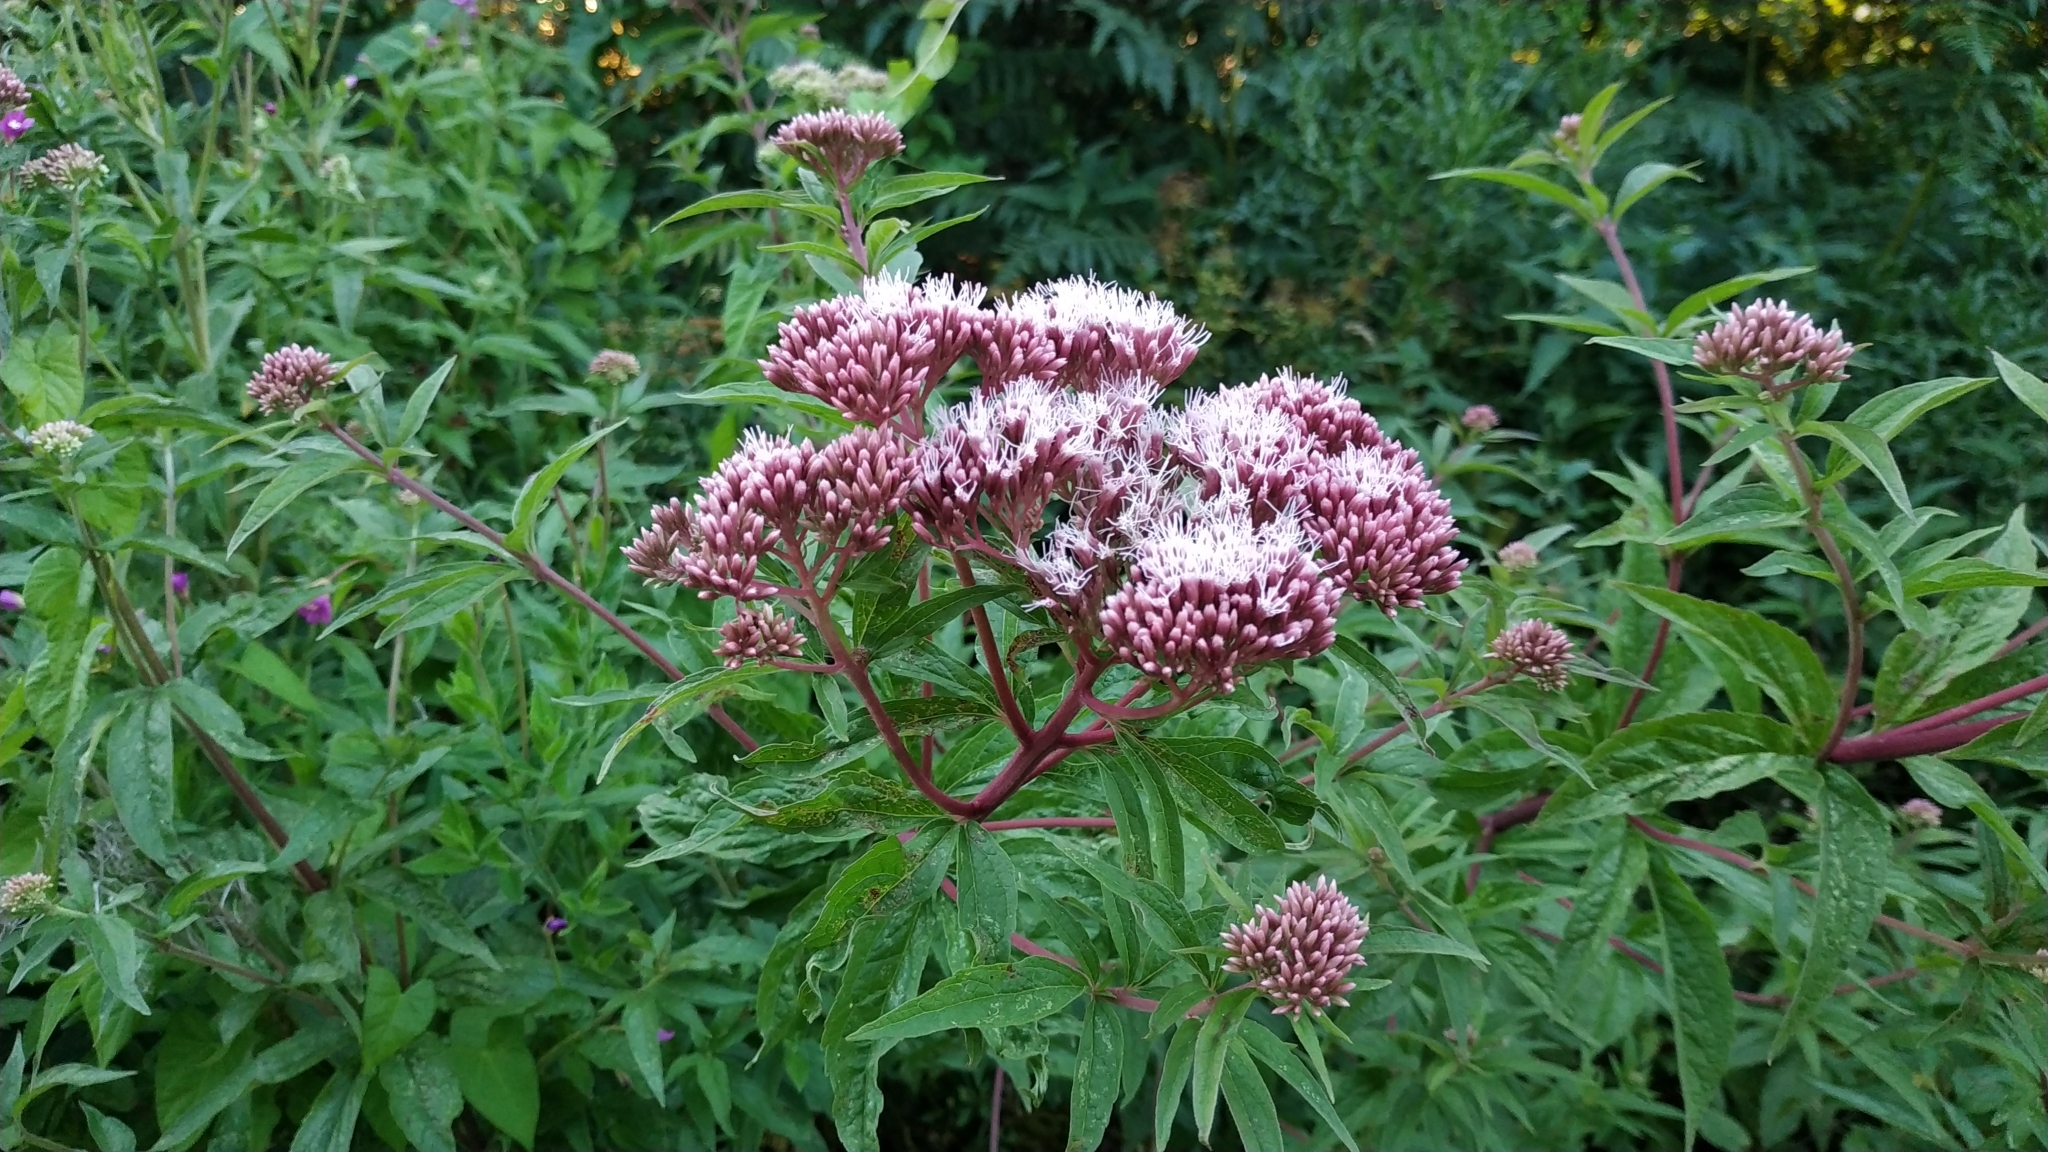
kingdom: Plantae
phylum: Tracheophyta
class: Magnoliopsida
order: Asterales
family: Asteraceae
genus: Eupatorium
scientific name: Eupatorium cannabinum
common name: Hemp-agrimony
